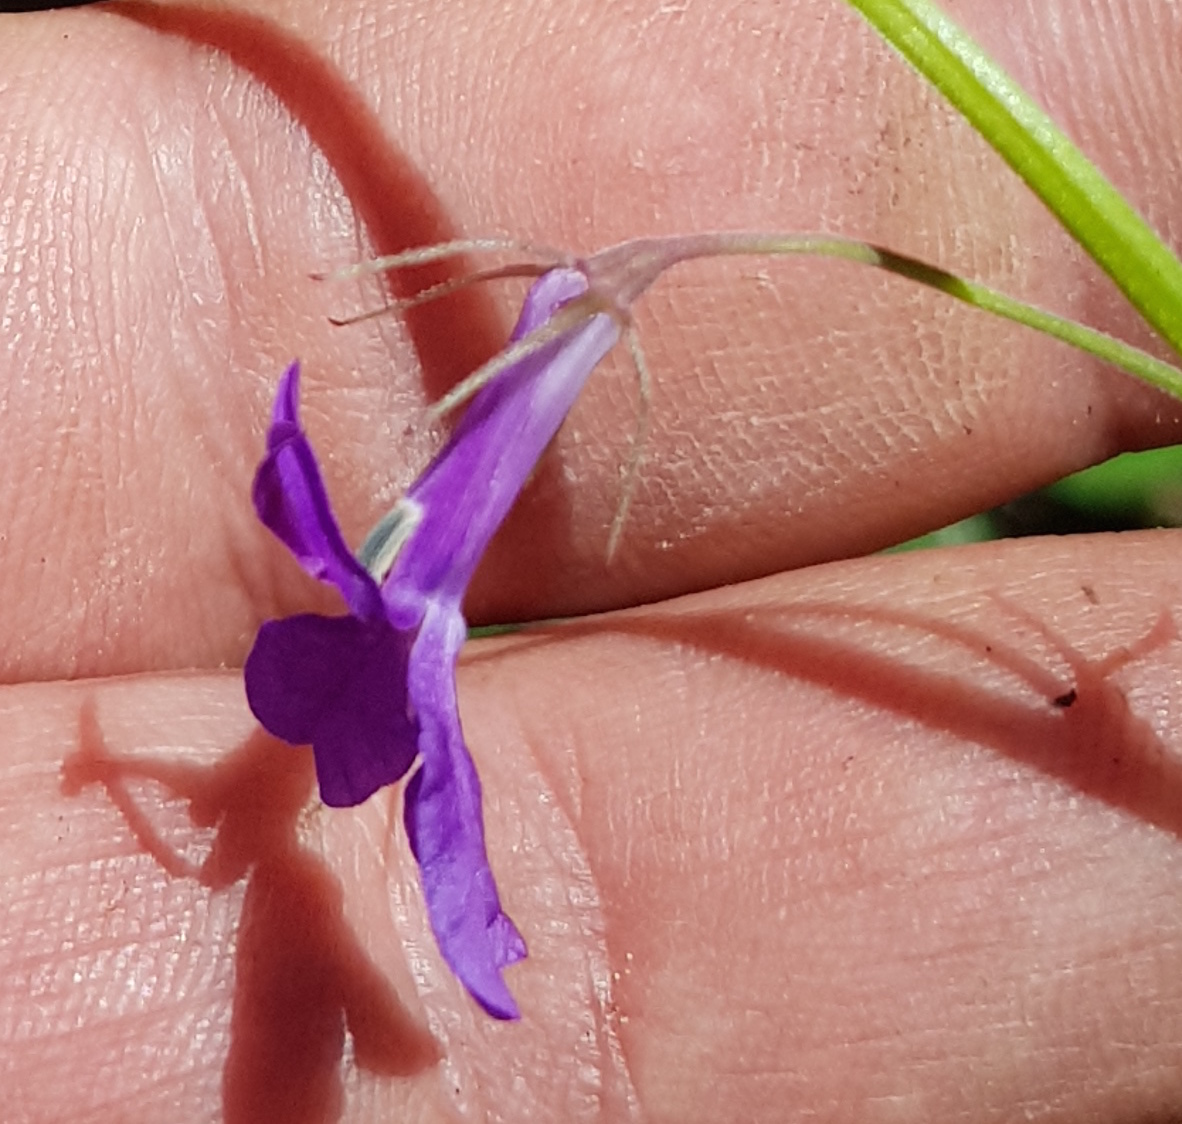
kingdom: Plantae
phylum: Tracheophyta
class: Magnoliopsida
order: Asterales
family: Campanulaceae
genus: Lobelia
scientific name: Lobelia setulosa
